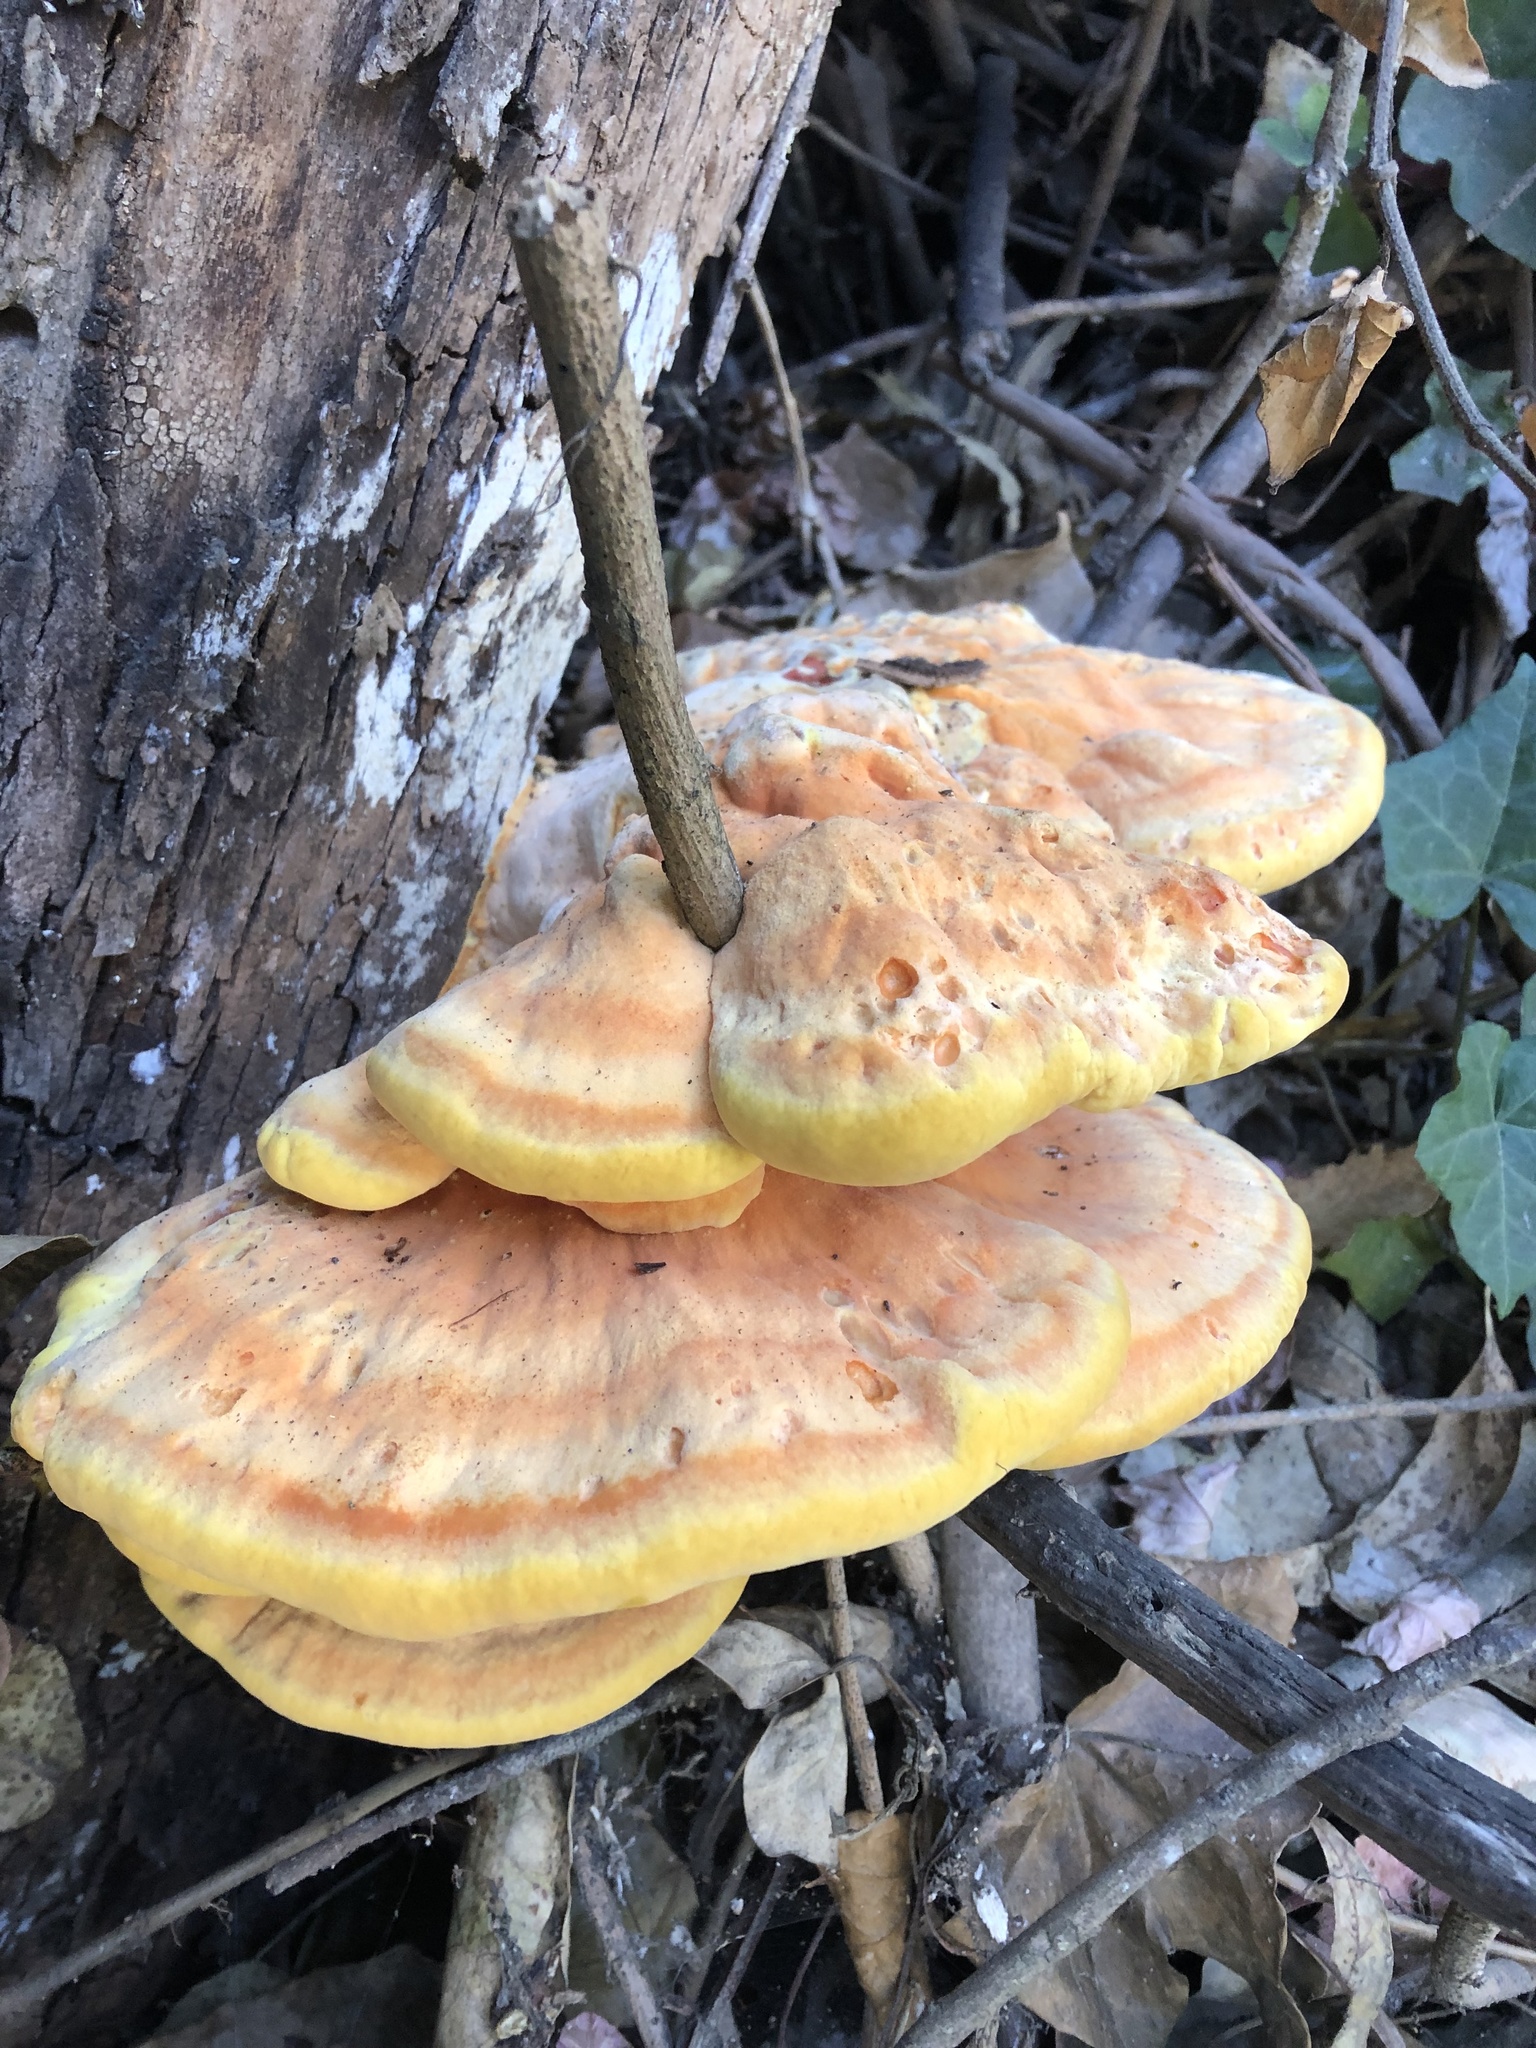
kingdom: Fungi
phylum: Basidiomycota
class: Agaricomycetes
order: Polyporales
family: Laetiporaceae
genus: Laetiporus
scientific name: Laetiporus gilbertsonii
